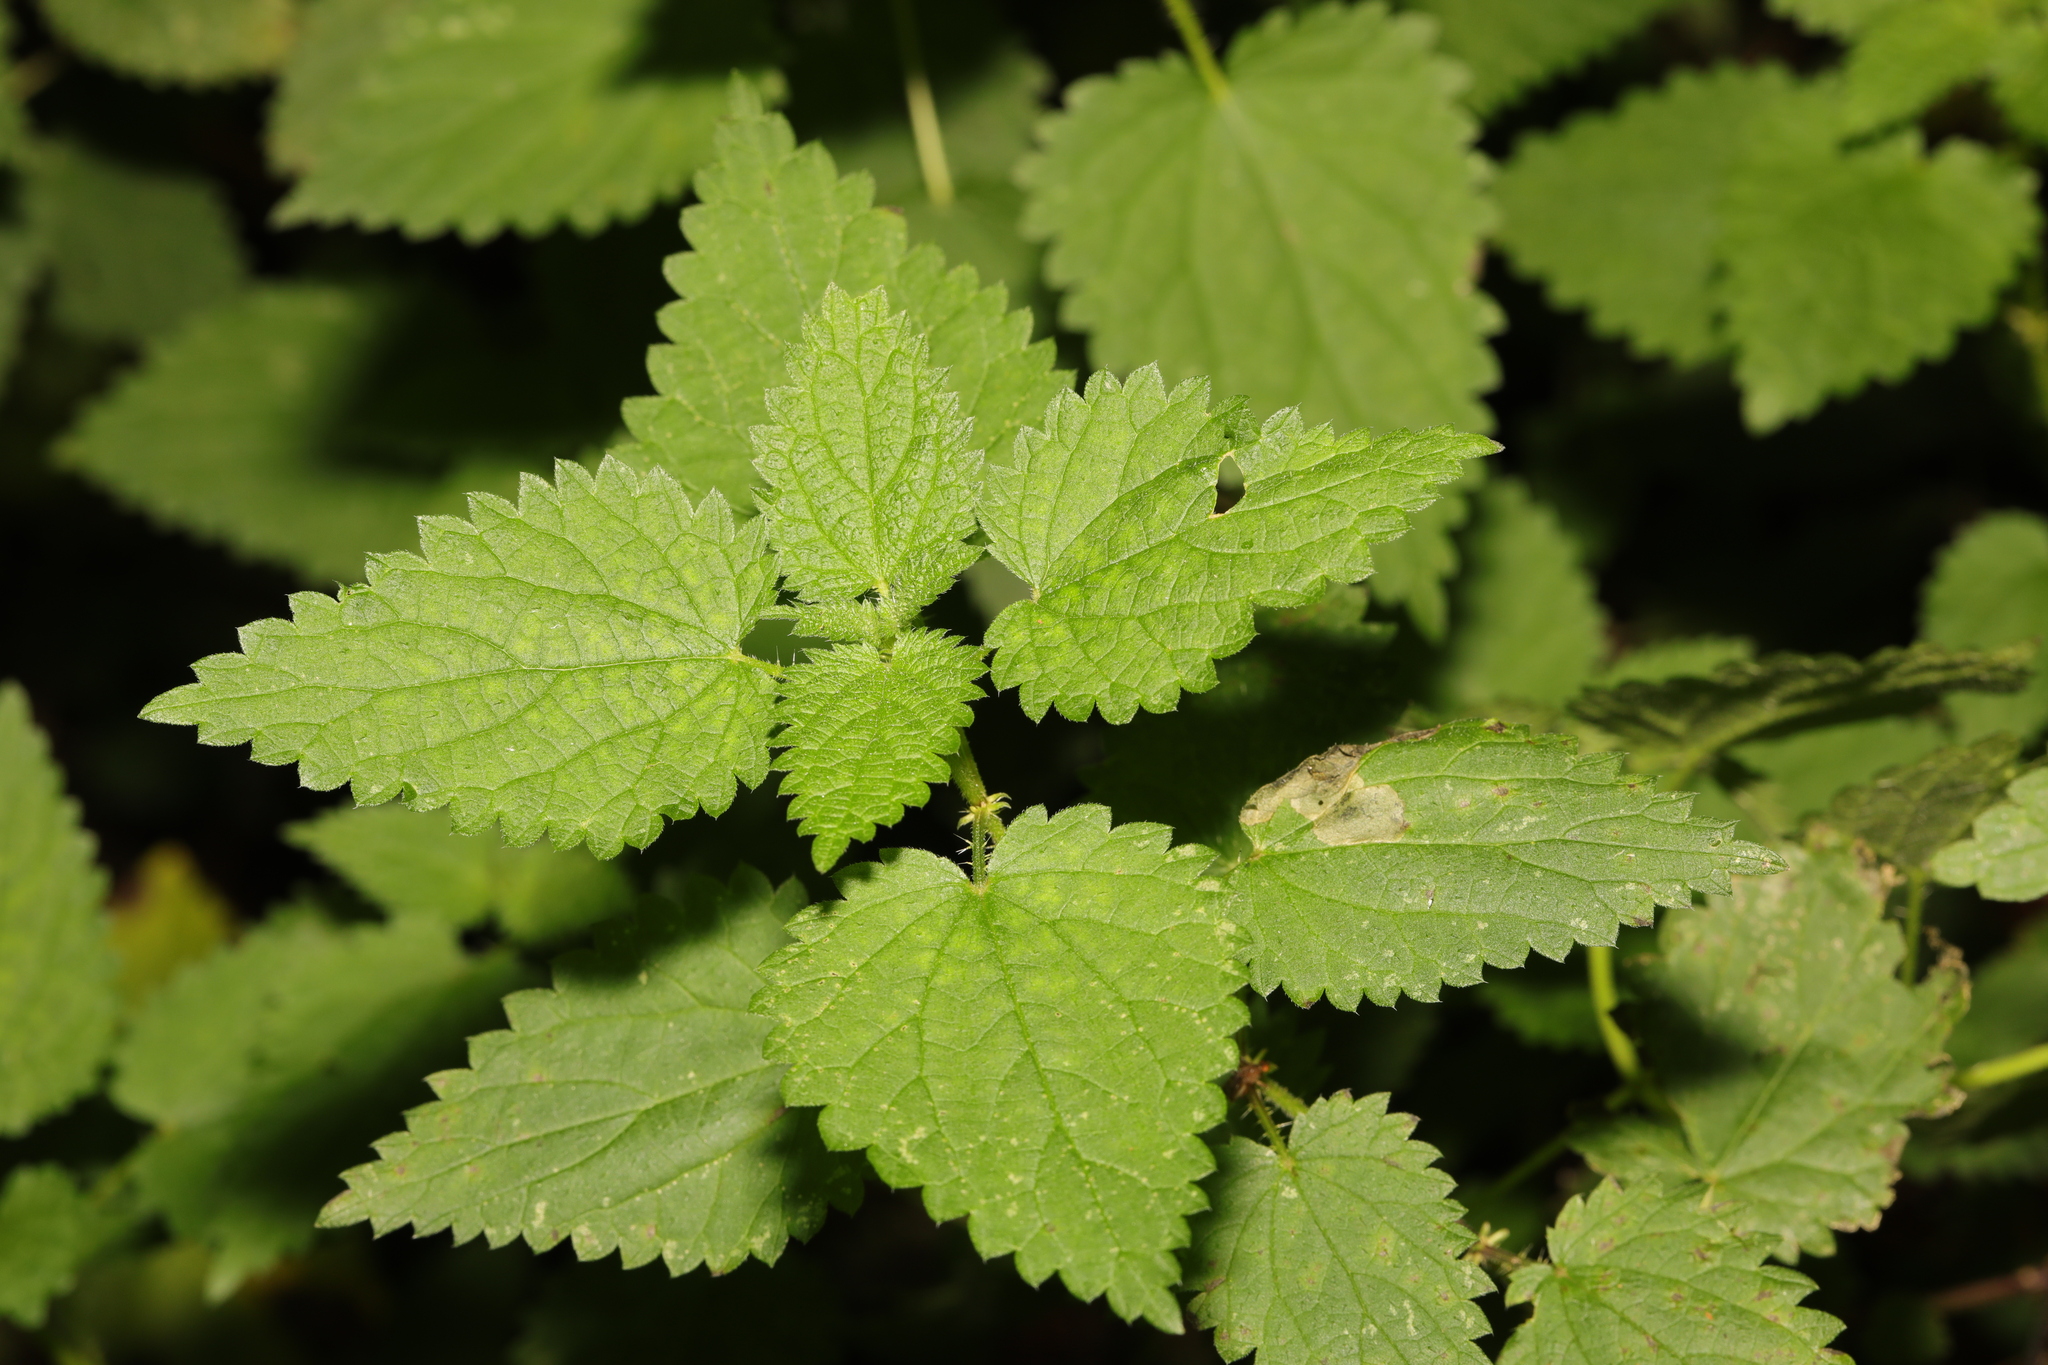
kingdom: Plantae
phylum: Tracheophyta
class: Magnoliopsida
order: Rosales
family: Urticaceae
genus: Urtica
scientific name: Urtica dioica
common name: Common nettle
